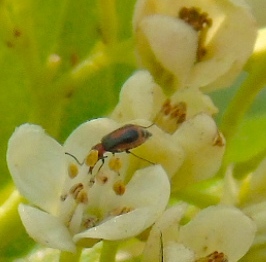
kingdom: Animalia
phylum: Arthropoda
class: Insecta
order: Coleoptera
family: Malachiidae
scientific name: Malachiidae
